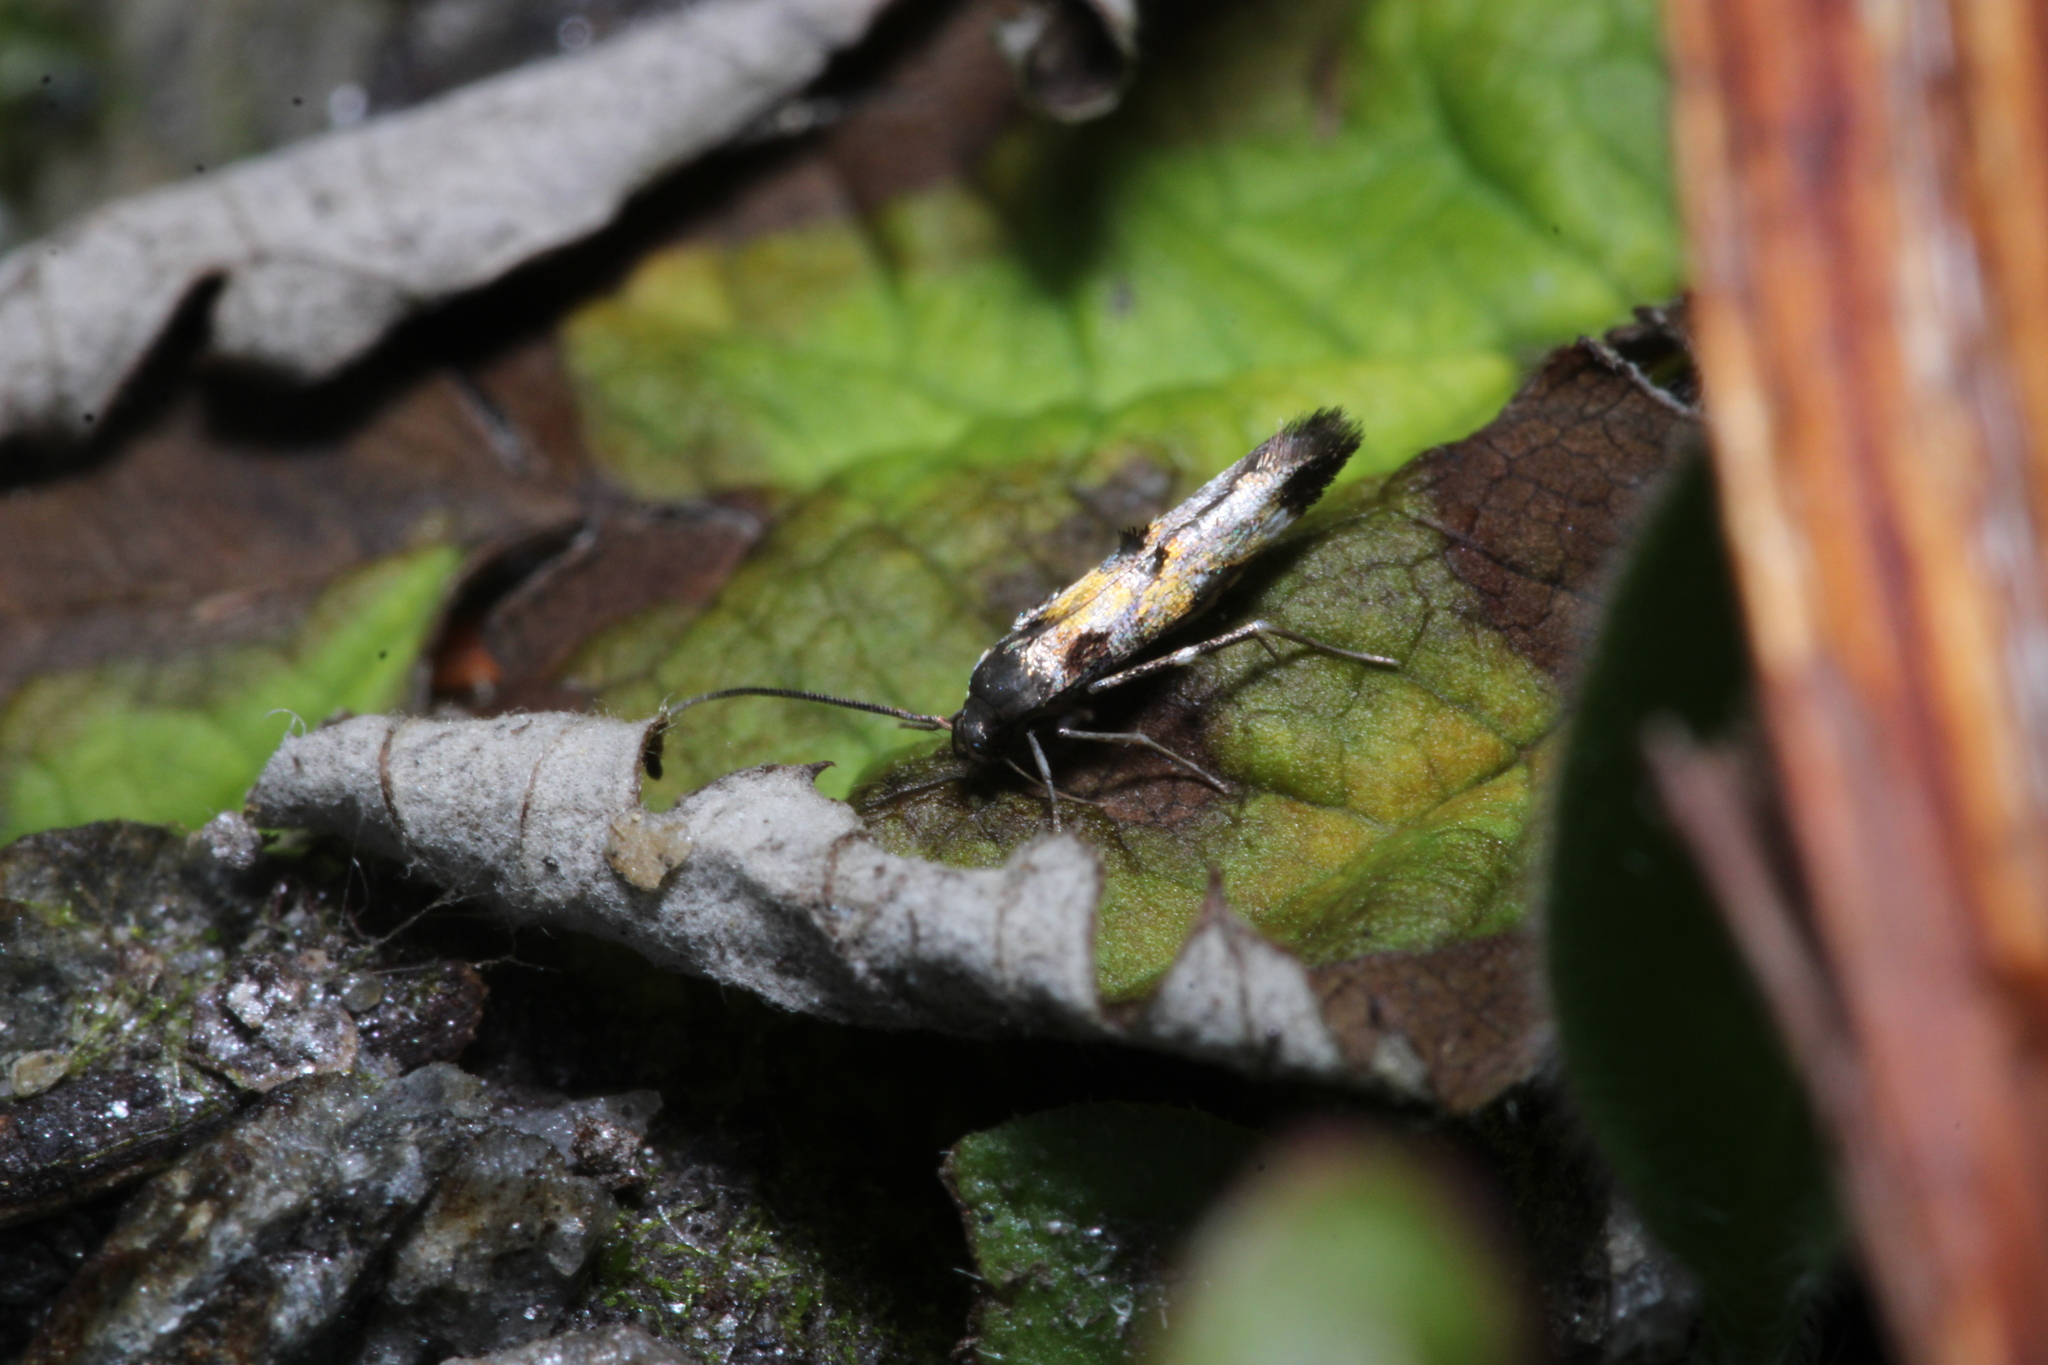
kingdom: Animalia
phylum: Arthropoda
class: Insecta
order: Lepidoptera
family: Momphidae
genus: Mompha
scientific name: Mompha locupletella
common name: Red cosmet
